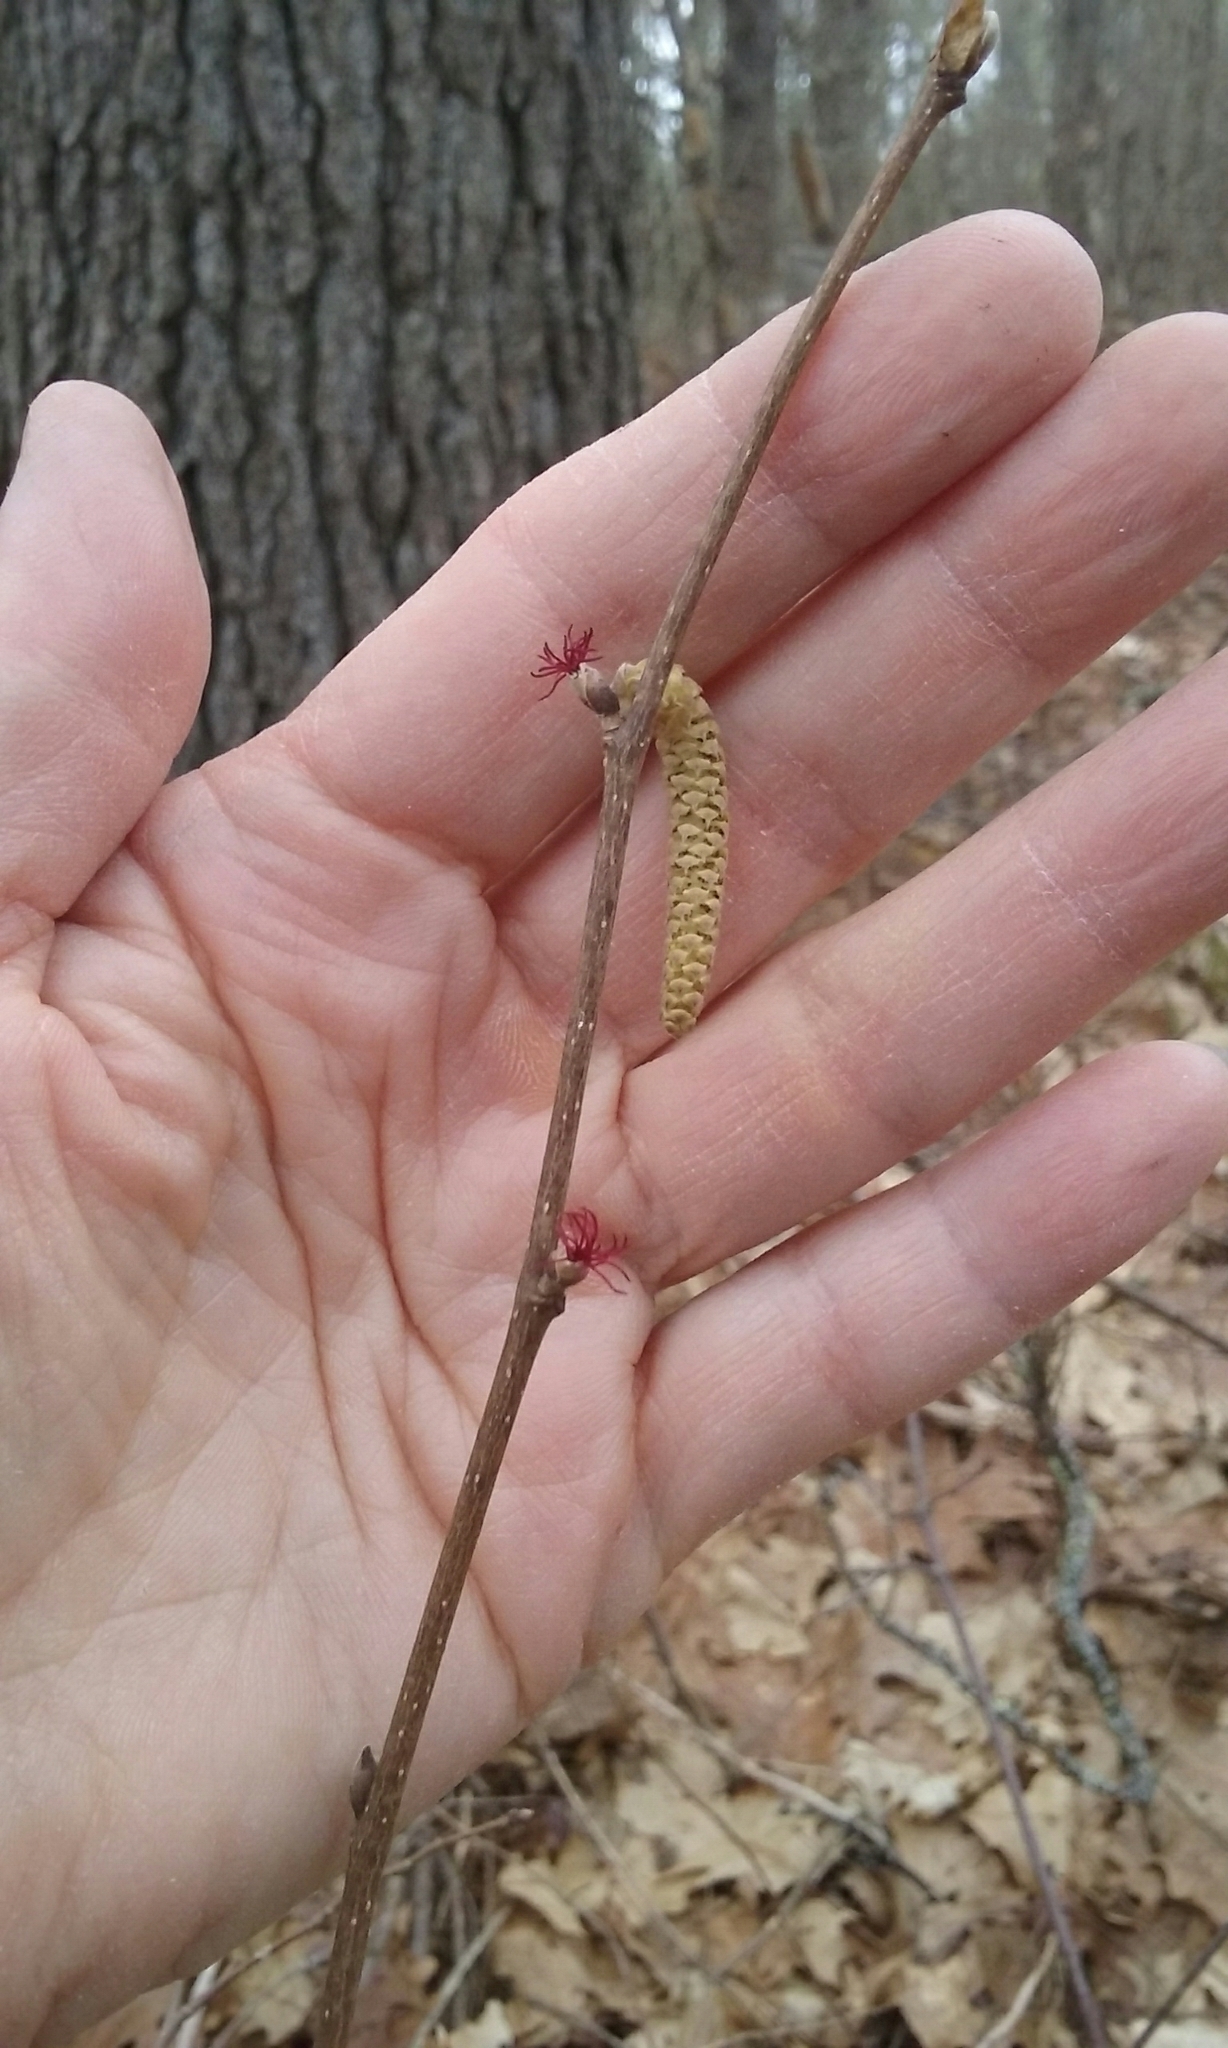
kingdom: Plantae
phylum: Tracheophyta
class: Magnoliopsida
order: Fagales
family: Betulaceae
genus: Corylus
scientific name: Corylus cornuta
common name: Beaked hazel
